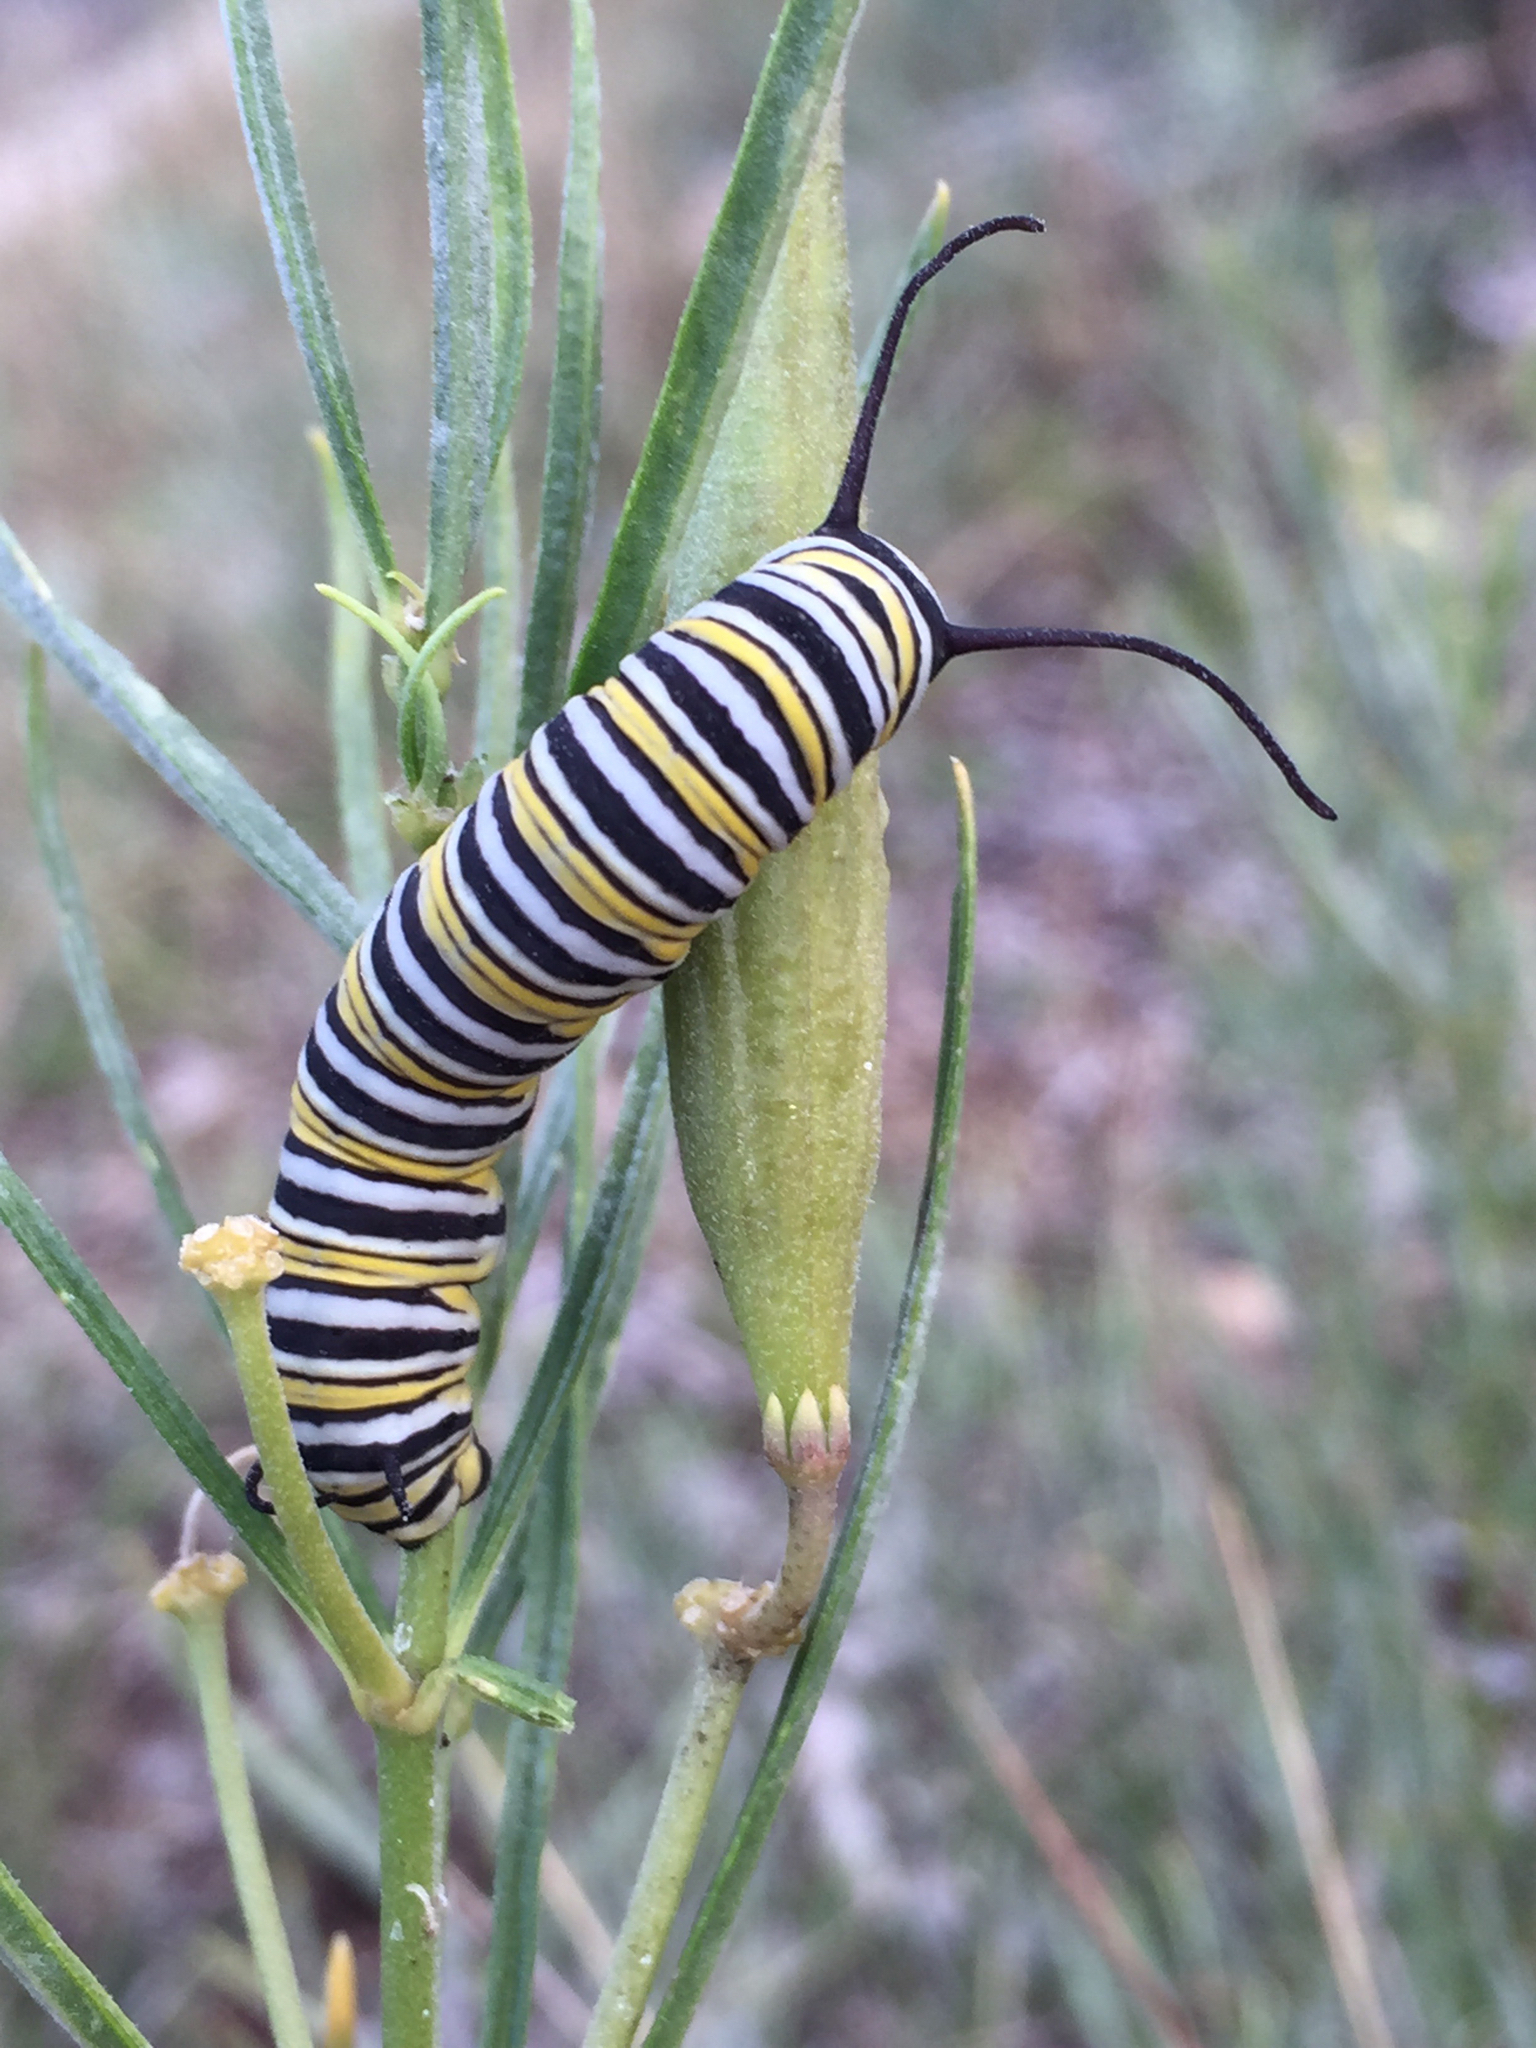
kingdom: Animalia
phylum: Arthropoda
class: Insecta
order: Lepidoptera
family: Nymphalidae
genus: Danaus
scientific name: Danaus plexippus
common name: Monarch
